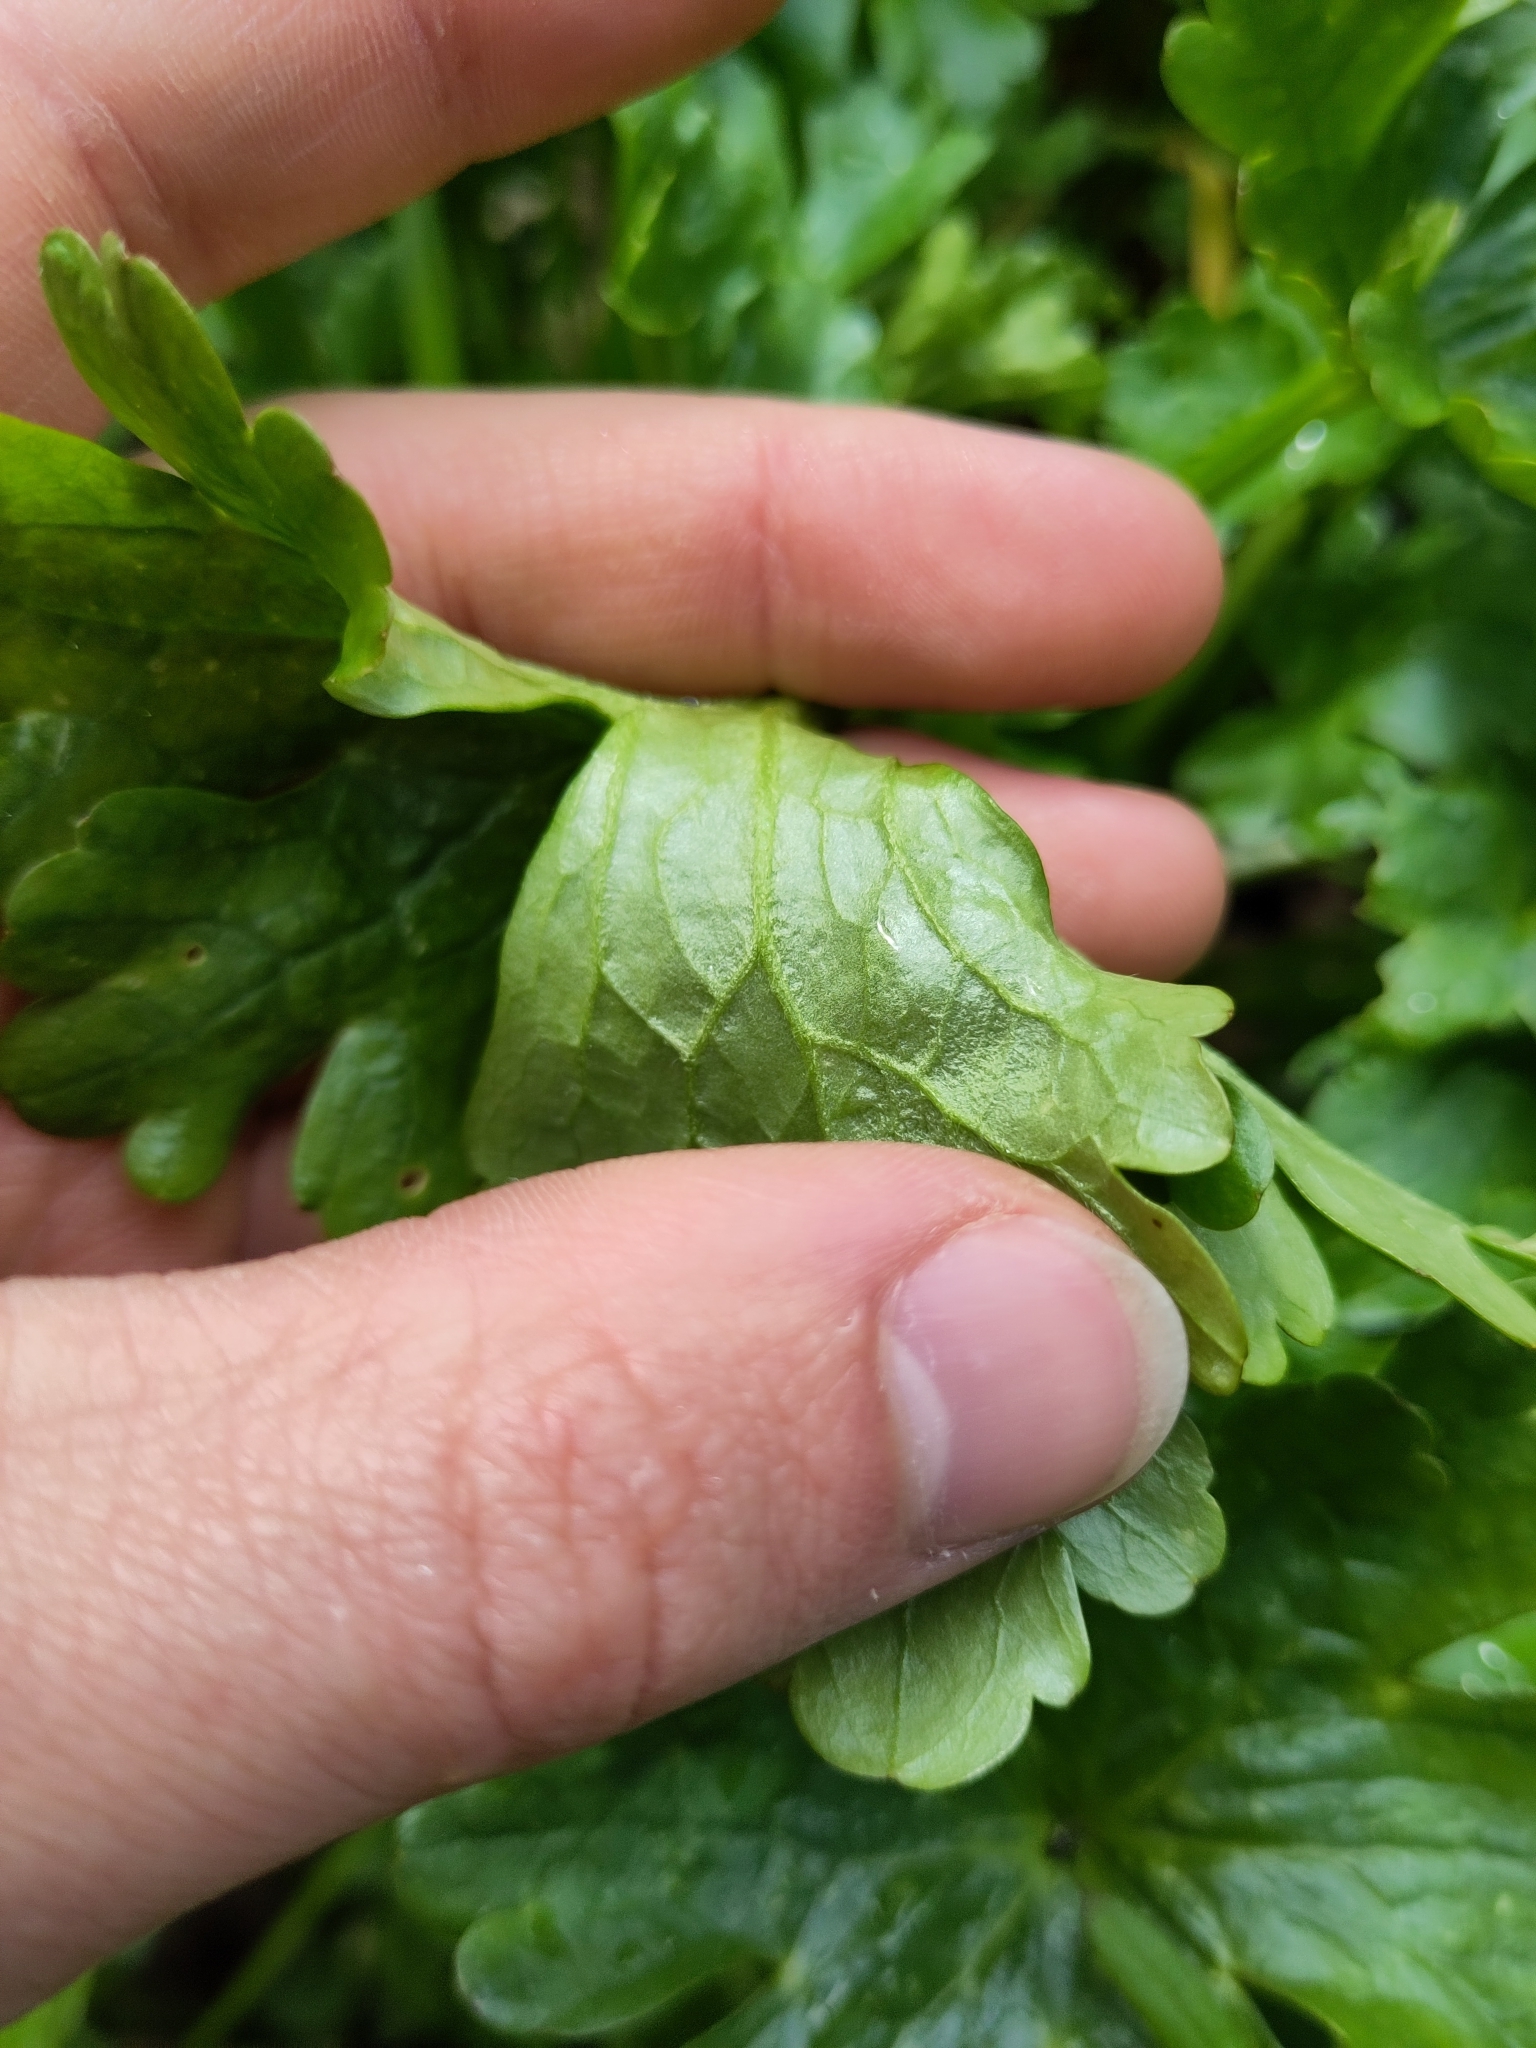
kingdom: Plantae
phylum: Tracheophyta
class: Magnoliopsida
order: Ranunculales
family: Ranunculaceae
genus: Ranunculus
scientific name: Ranunculus sceleratus
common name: Celery-leaved buttercup
